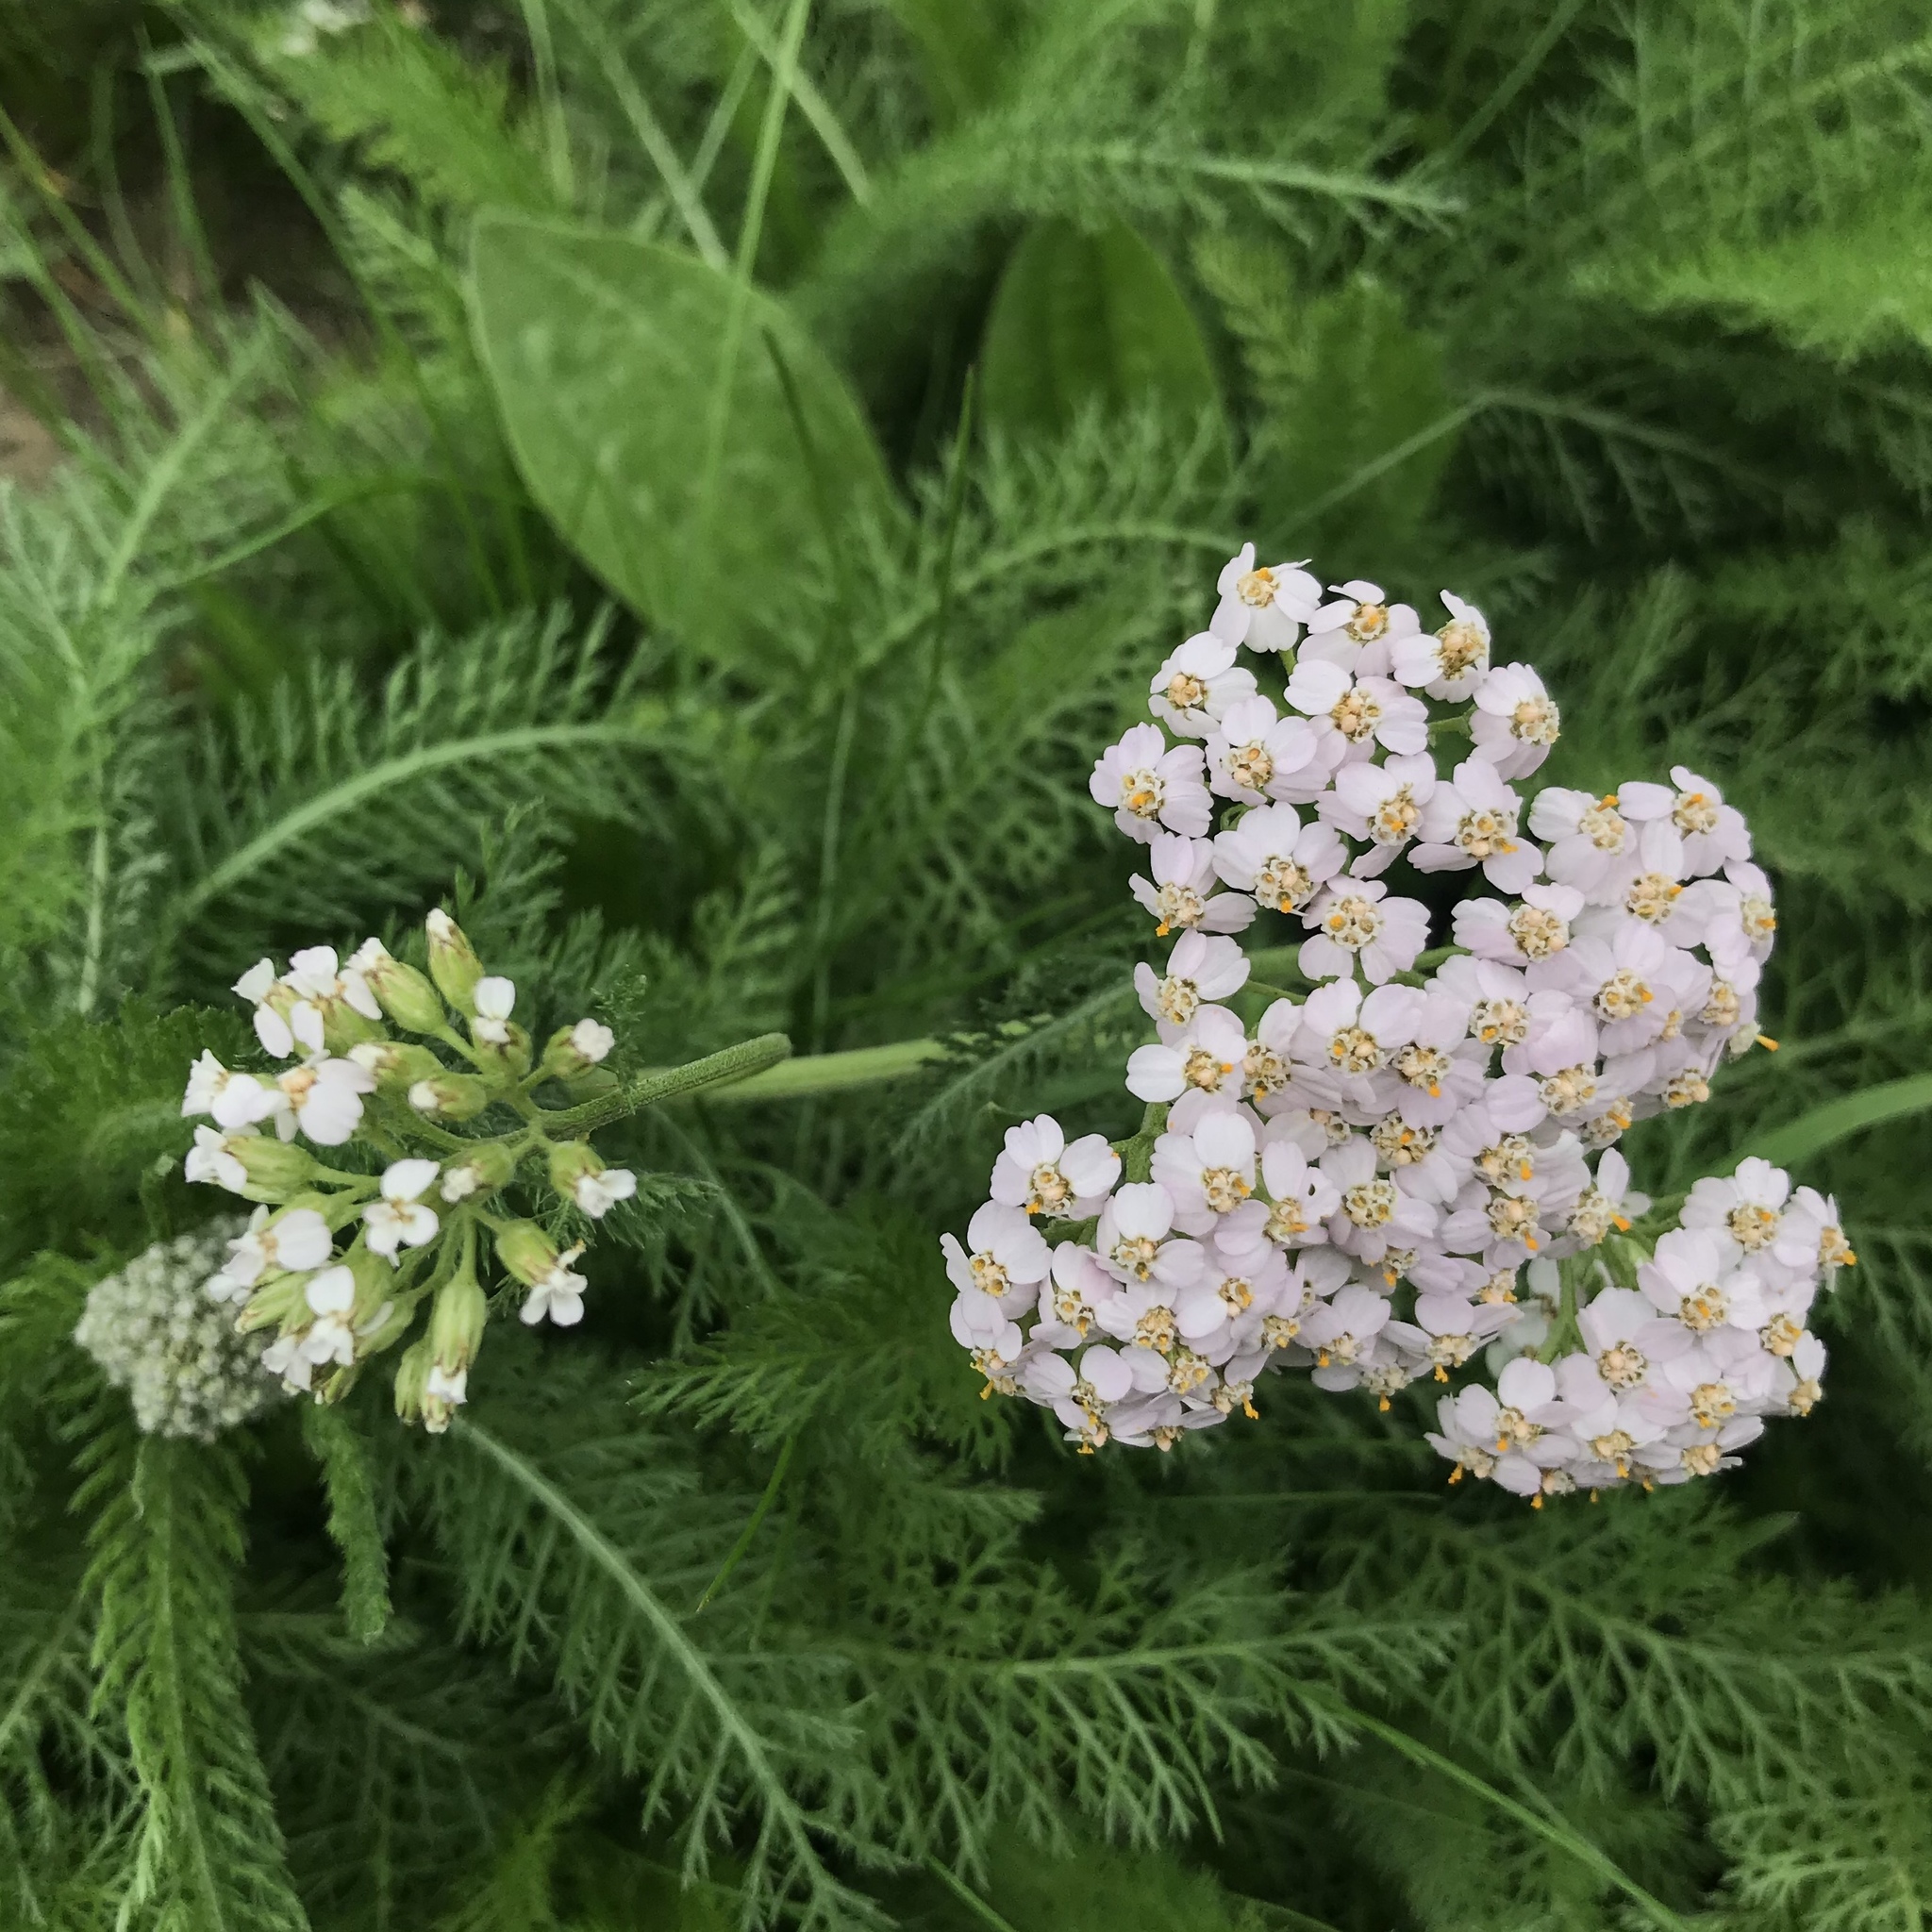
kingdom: Plantae
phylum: Tracheophyta
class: Magnoliopsida
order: Asterales
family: Asteraceae
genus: Achillea
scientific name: Achillea millefolium
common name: Yarrow
